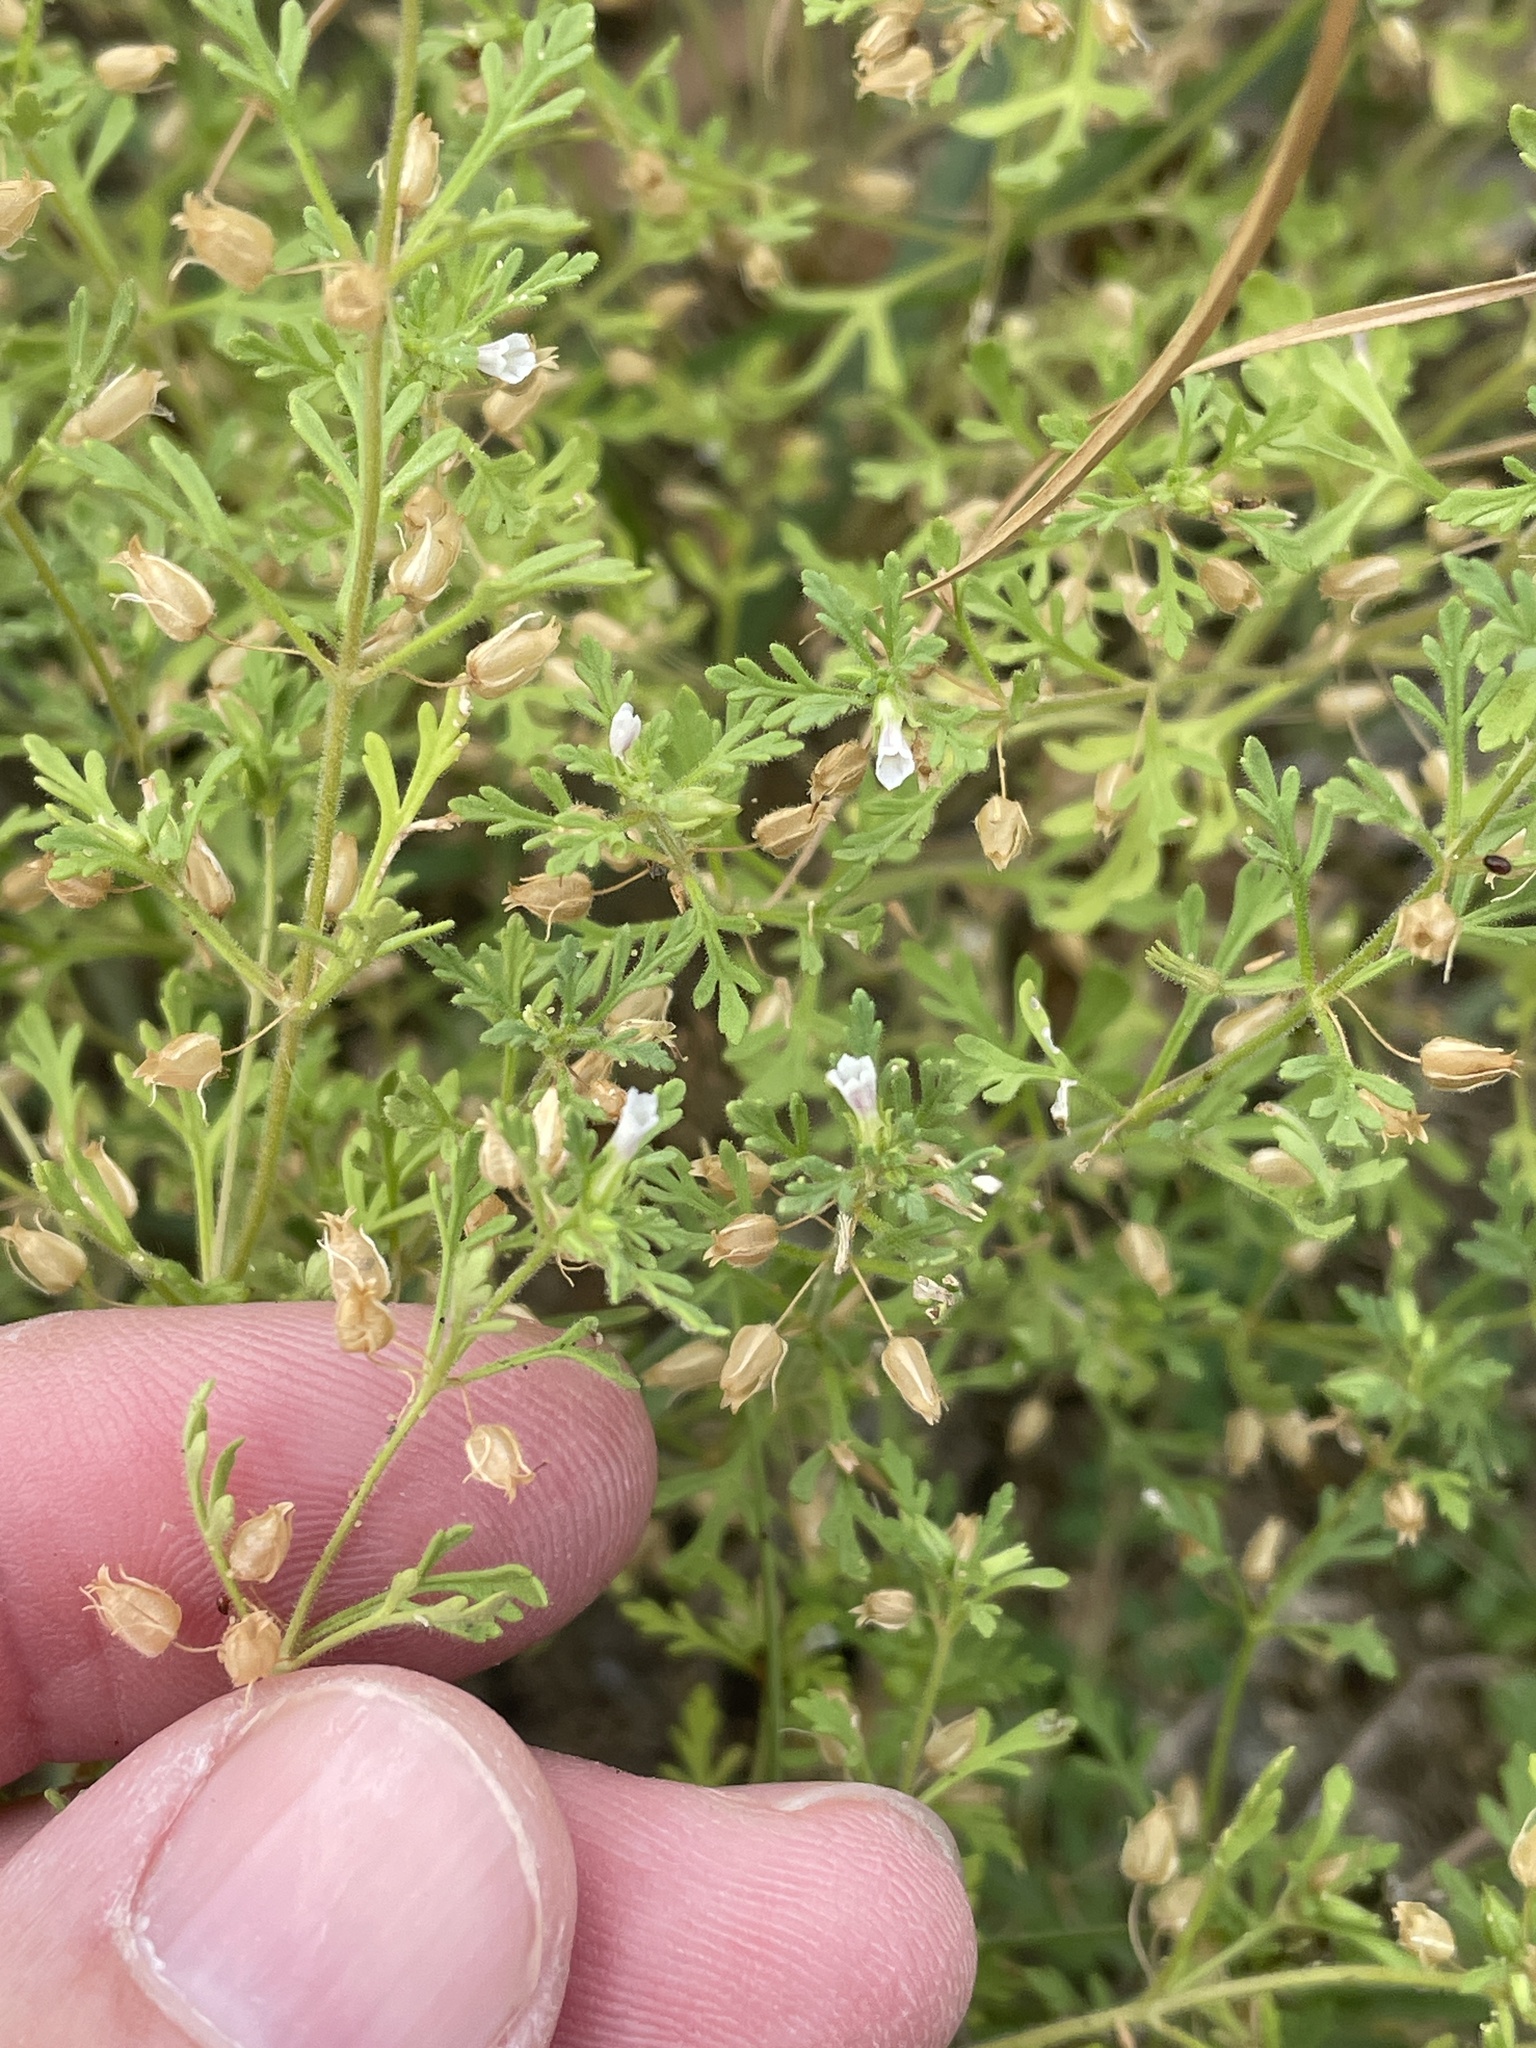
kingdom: Plantae
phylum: Tracheophyta
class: Magnoliopsida
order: Lamiales
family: Plantaginaceae
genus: Leucospora
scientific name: Leucospora multifida
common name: Narrow-leaf paleseed
